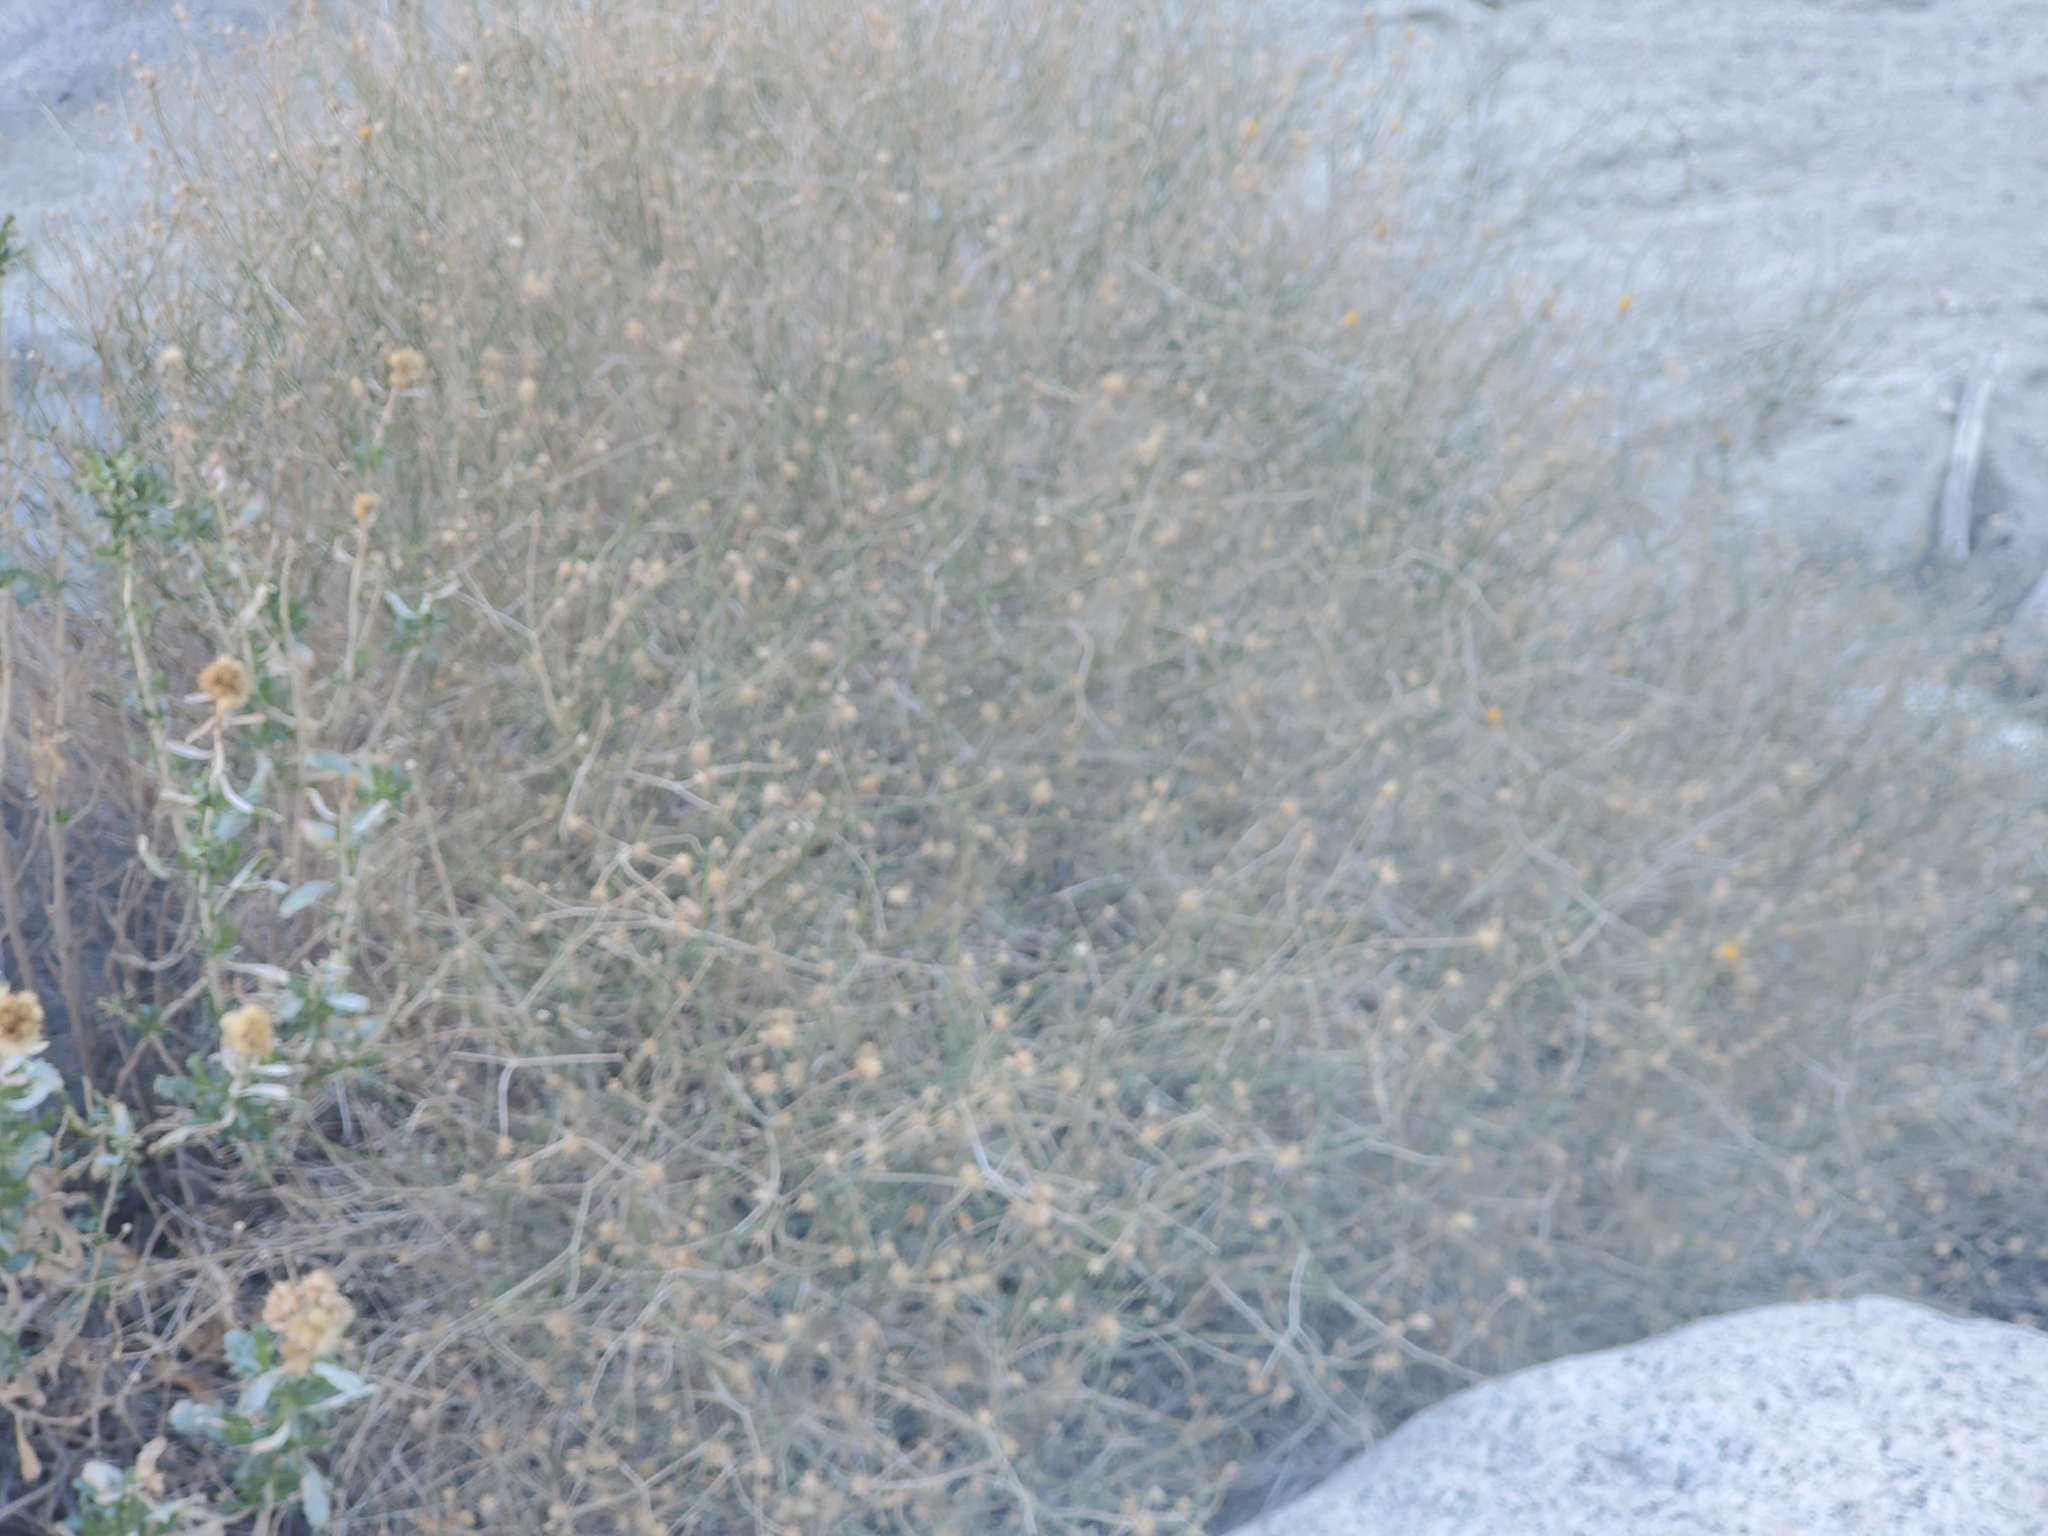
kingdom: Plantae
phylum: Tracheophyta
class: Magnoliopsida
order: Asterales
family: Asteraceae
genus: Bebbia
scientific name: Bebbia juncea
